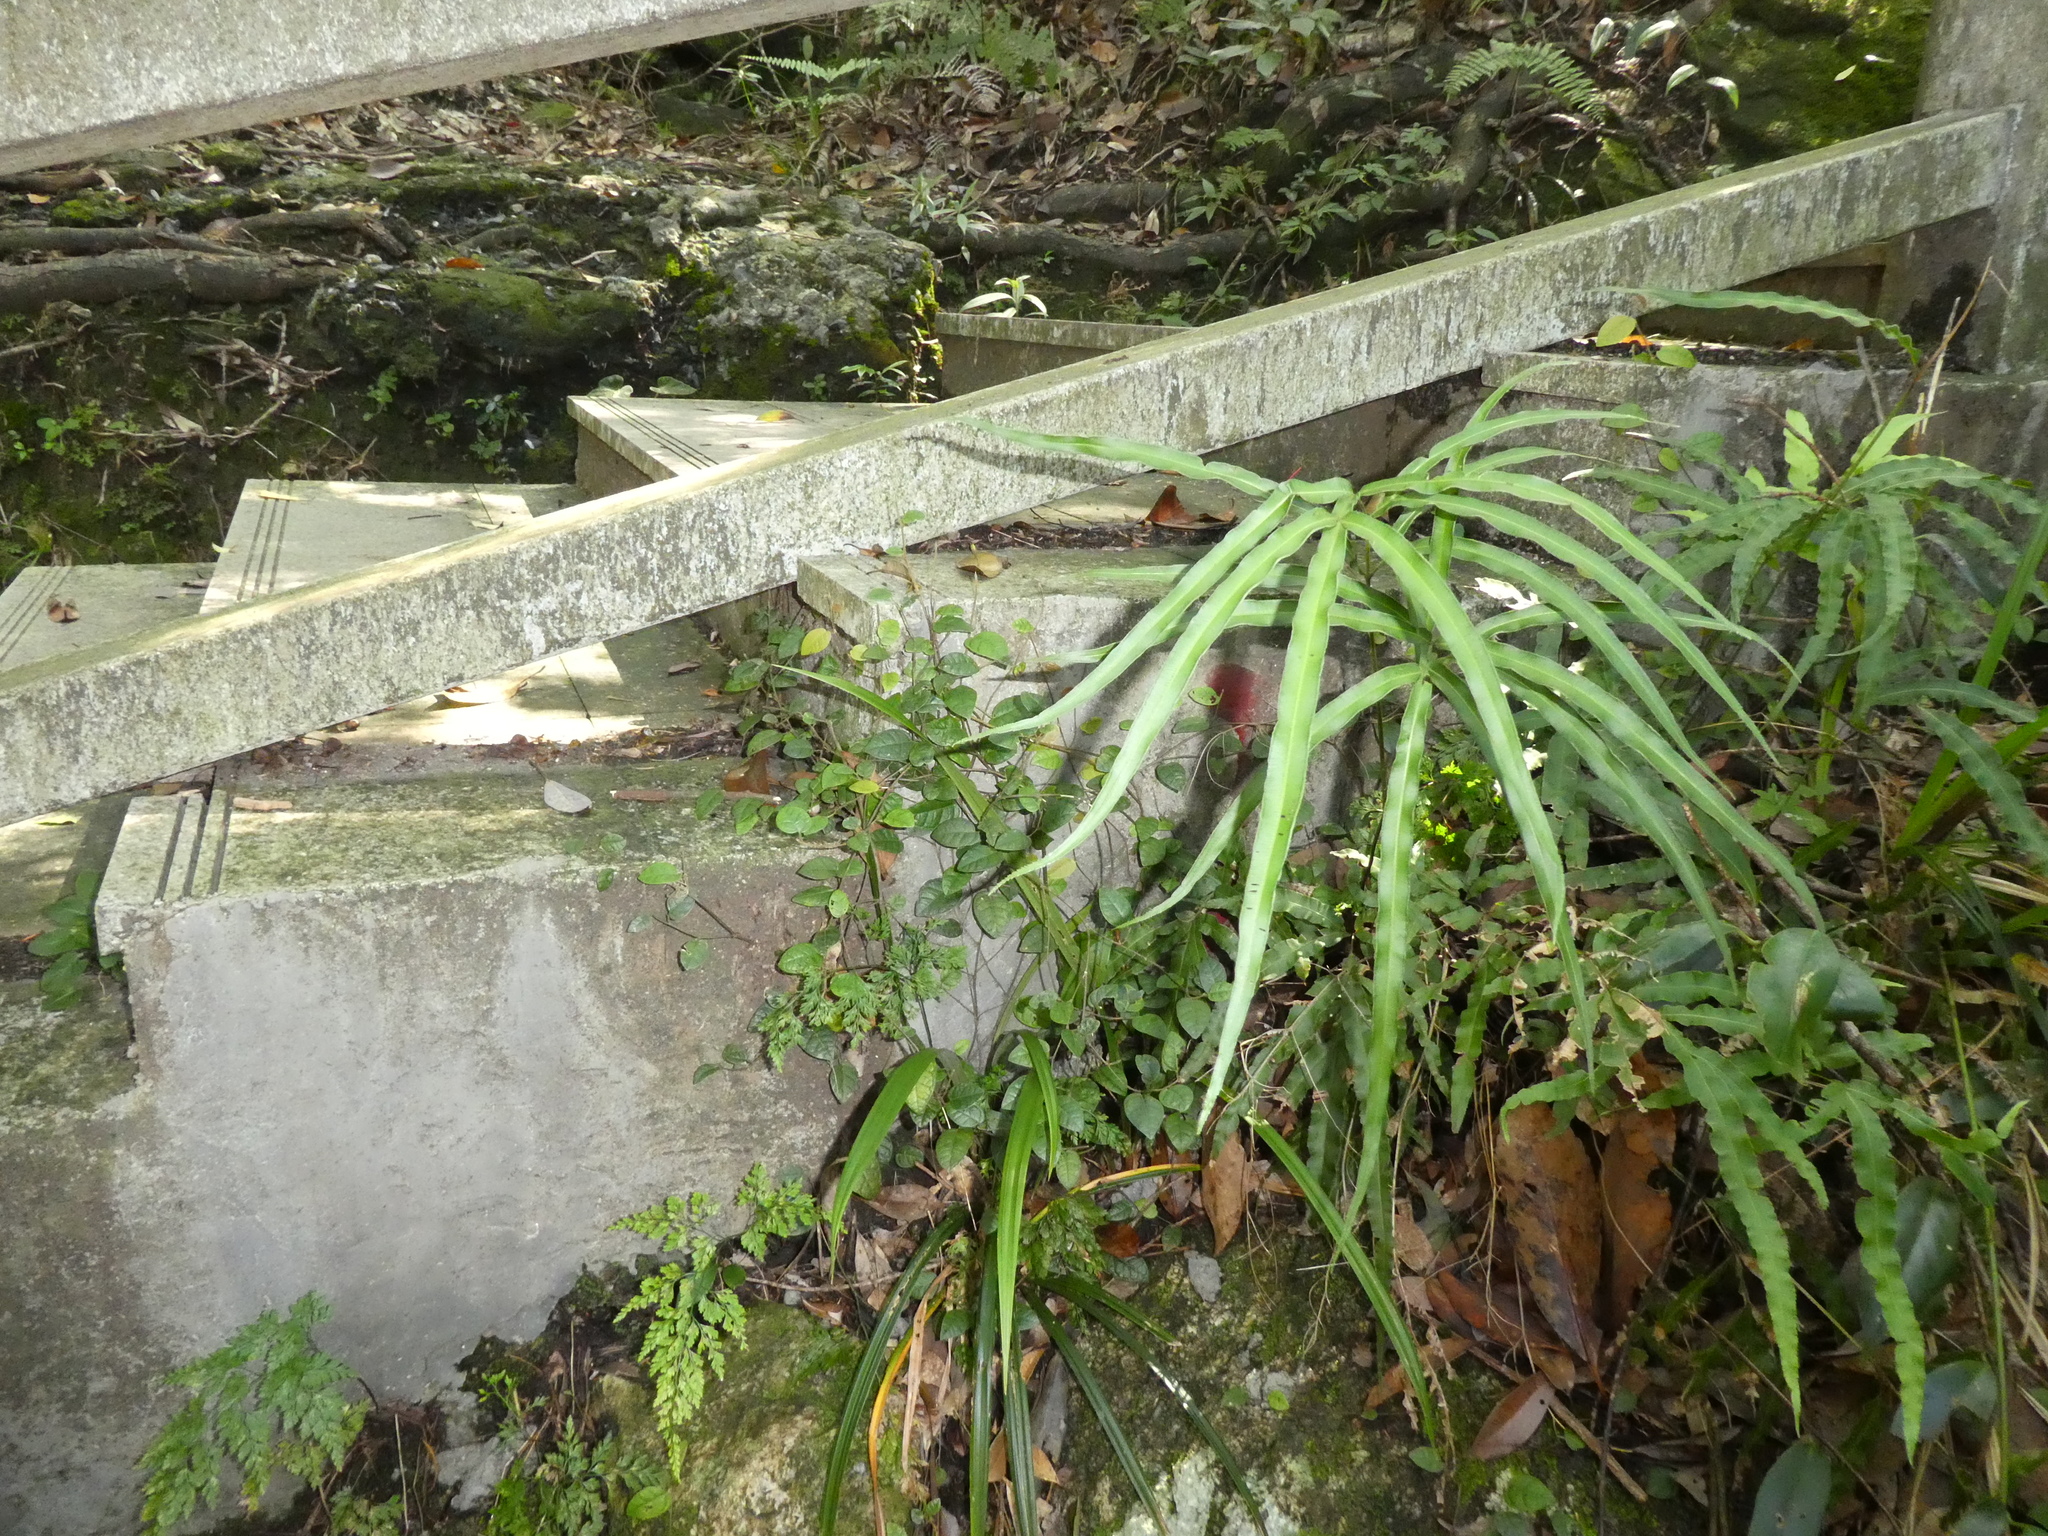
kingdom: Plantae
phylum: Tracheophyta
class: Magnoliopsida
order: Rosales
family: Moraceae
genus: Ficus
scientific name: Ficus pumila
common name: Climbingfig
